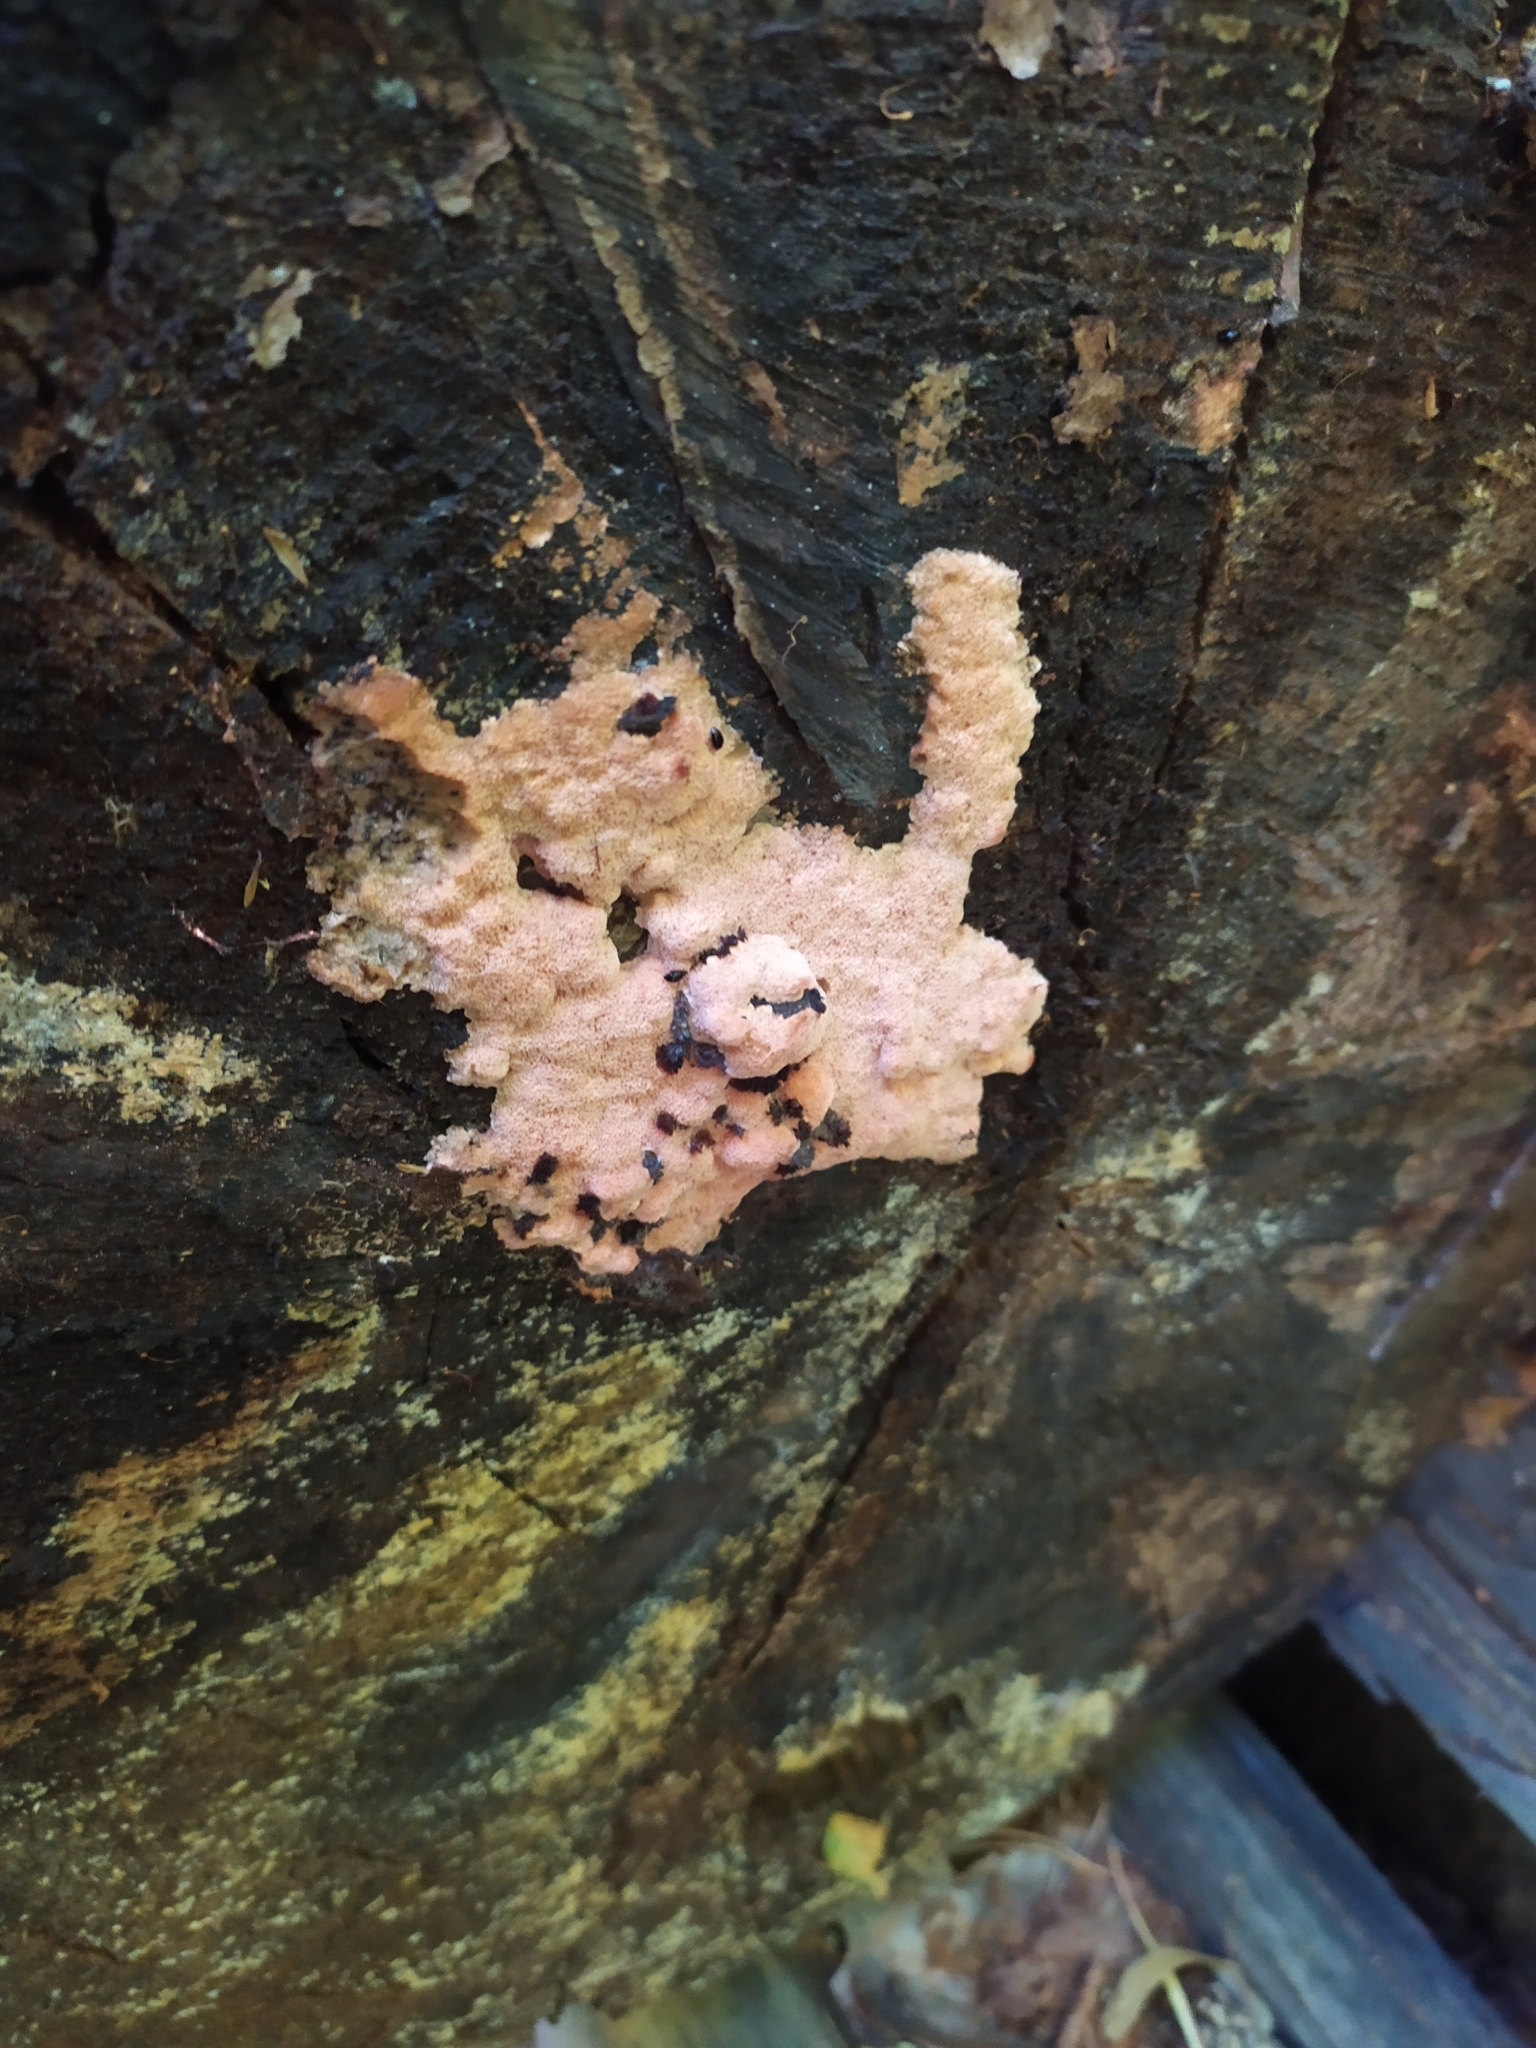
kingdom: Fungi
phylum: Basidiomycota
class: Agaricomycetes
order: Polyporales
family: Polyporaceae
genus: Rhodonia
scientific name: Rhodonia placenta
